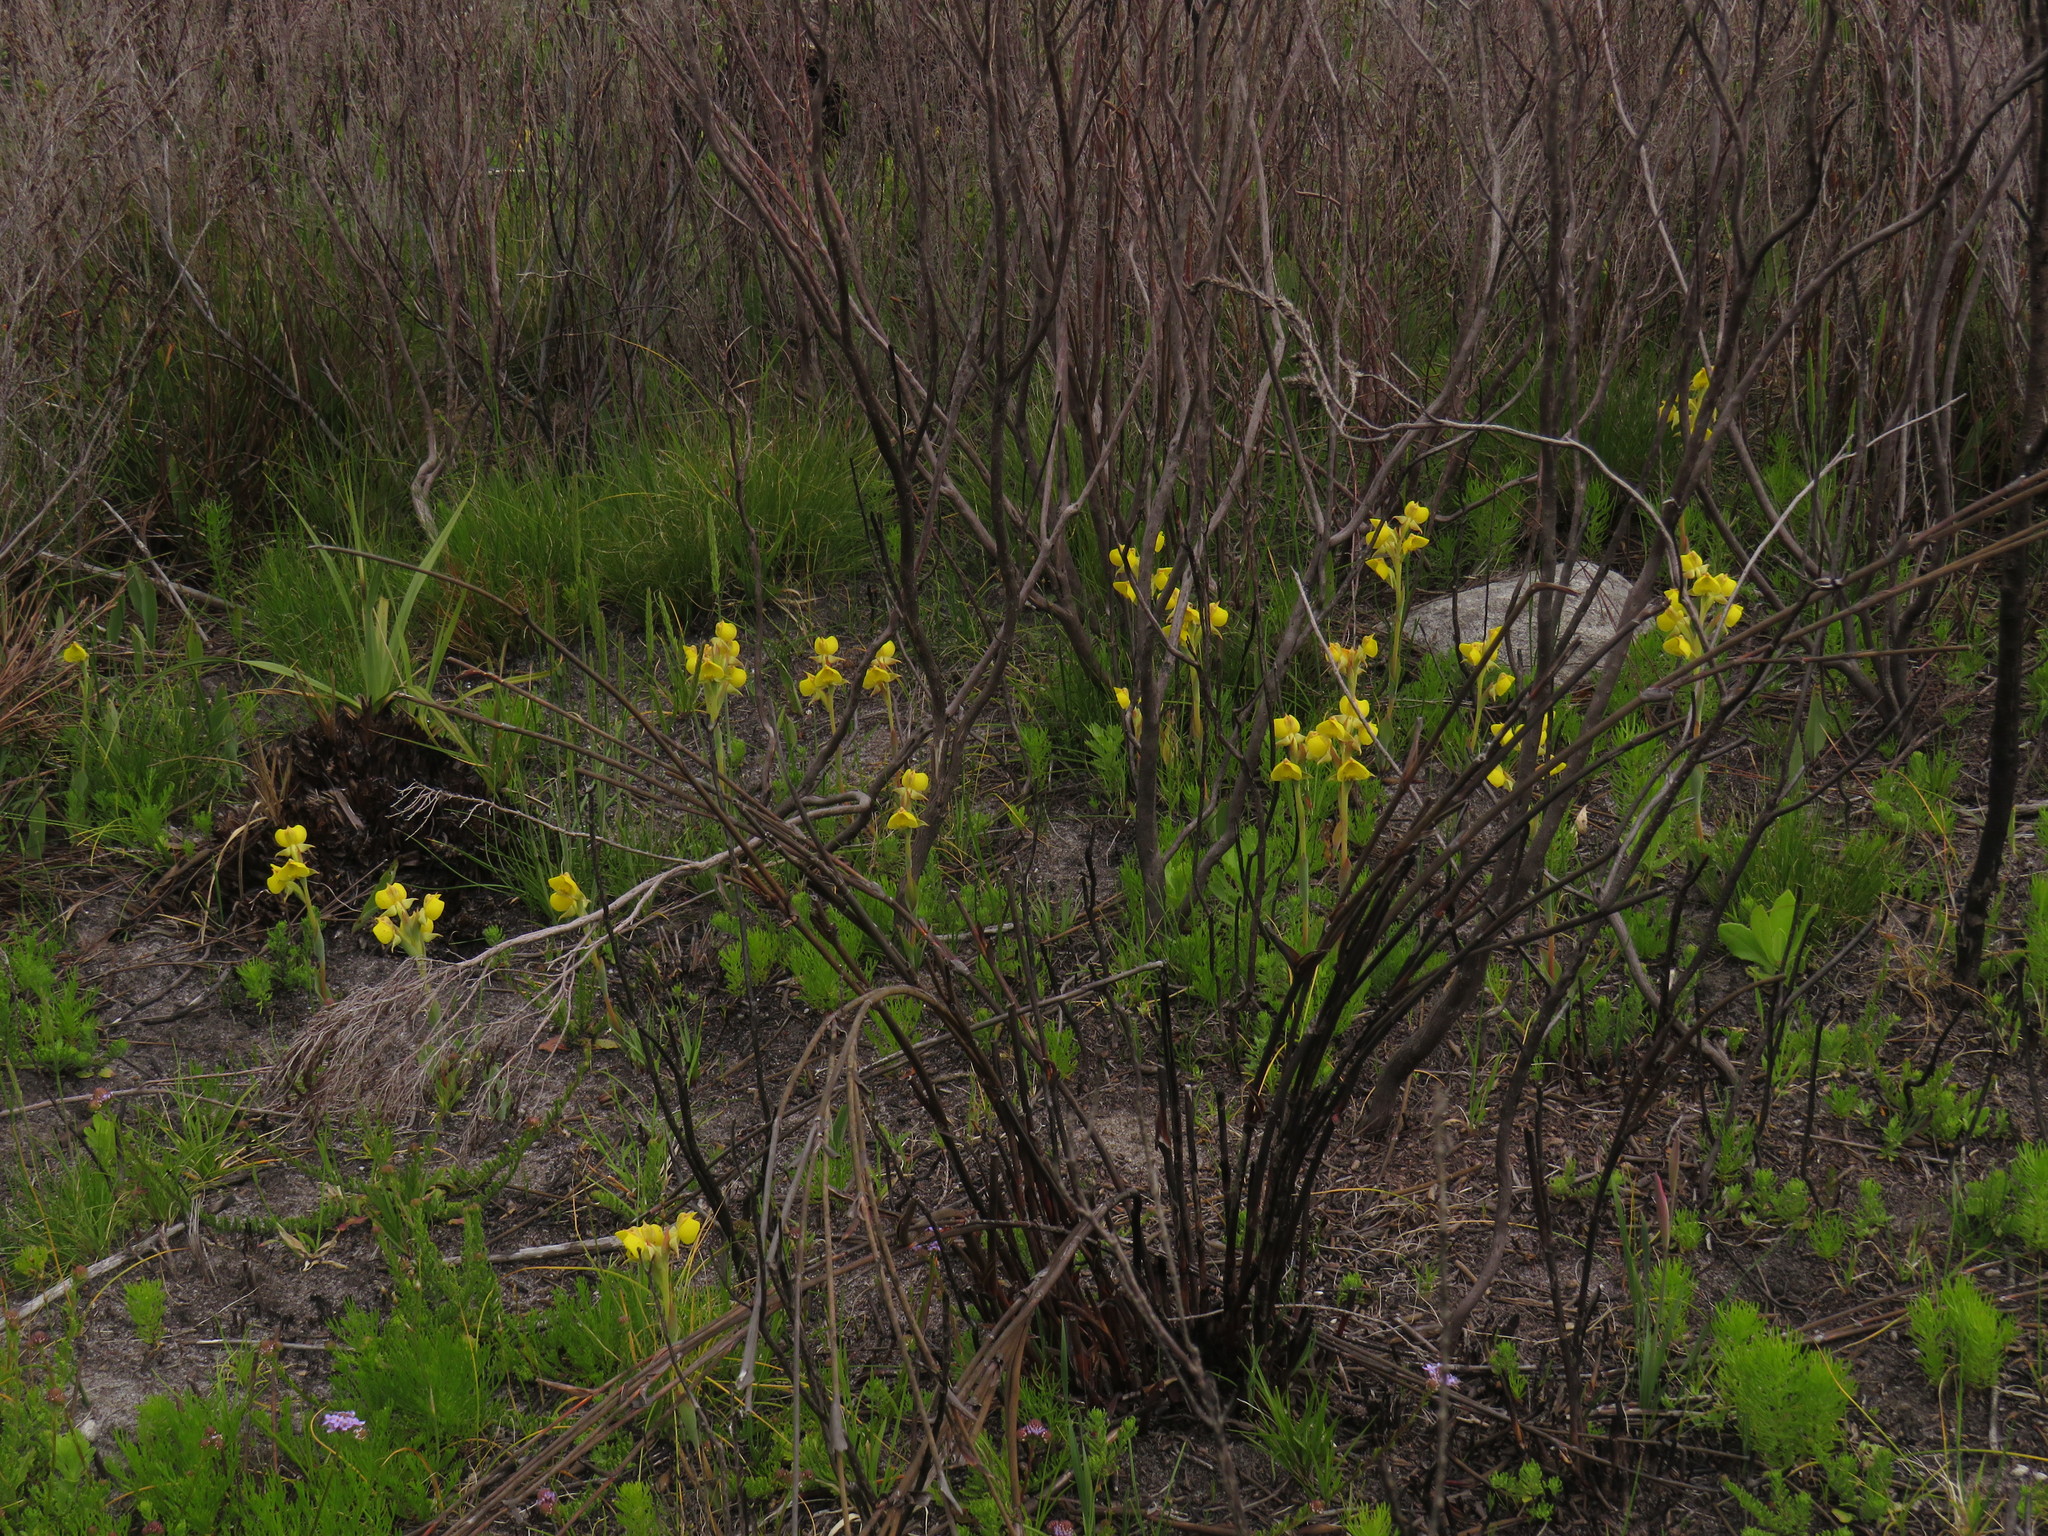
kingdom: Plantae
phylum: Tracheophyta
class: Liliopsida
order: Asparagales
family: Orchidaceae
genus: Pterygodium
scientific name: Pterygodium acutifolium
